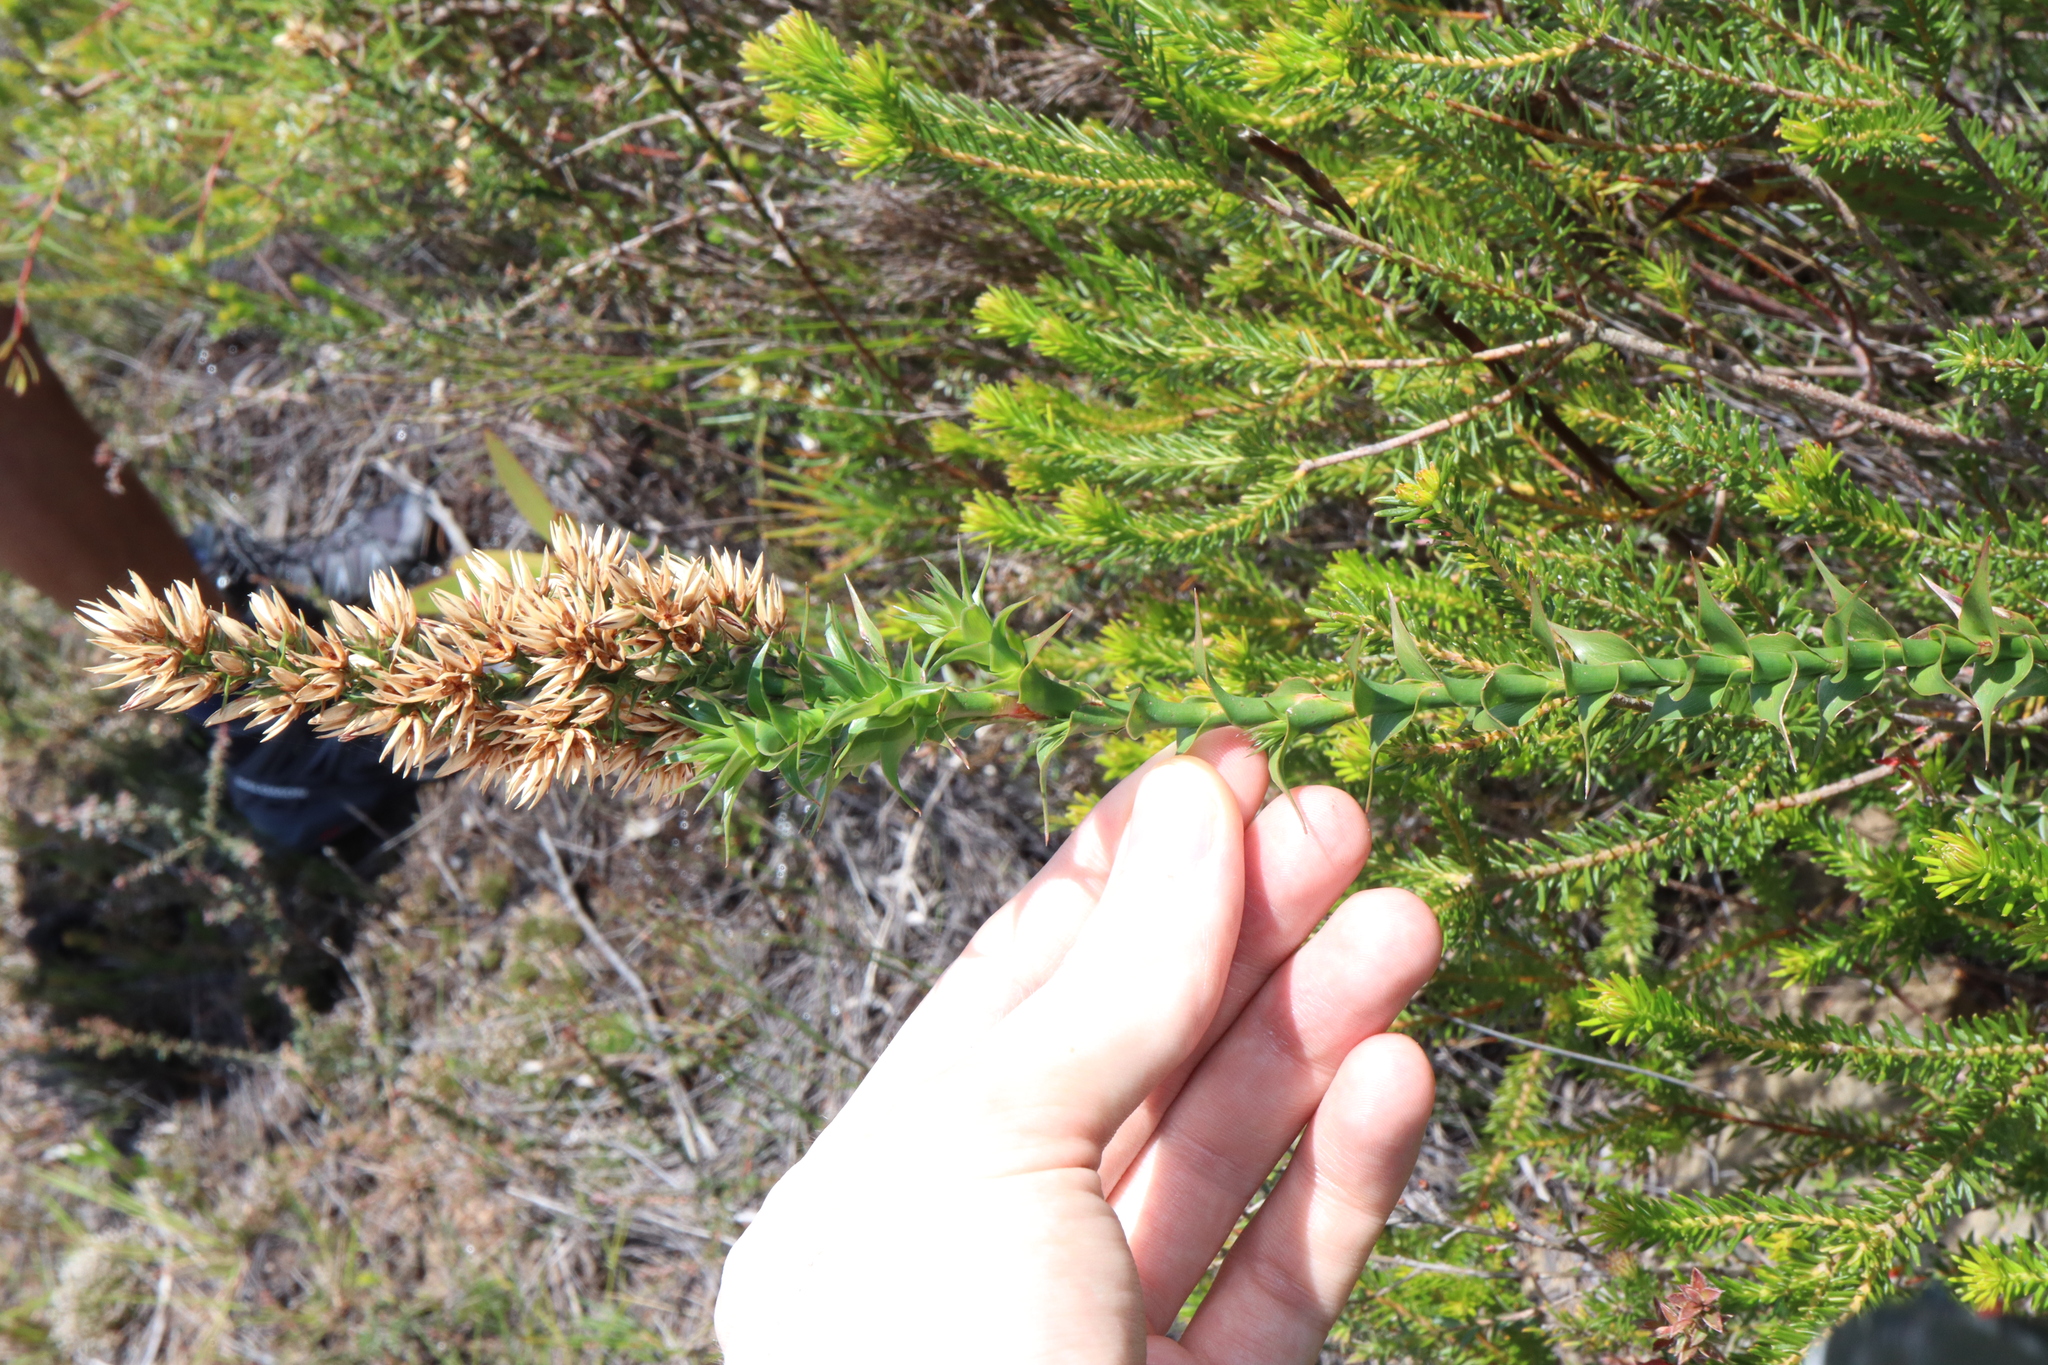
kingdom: Plantae
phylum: Tracheophyta
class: Magnoliopsida
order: Ericales
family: Ericaceae
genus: Sprengelia
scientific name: Sprengelia incarnata
